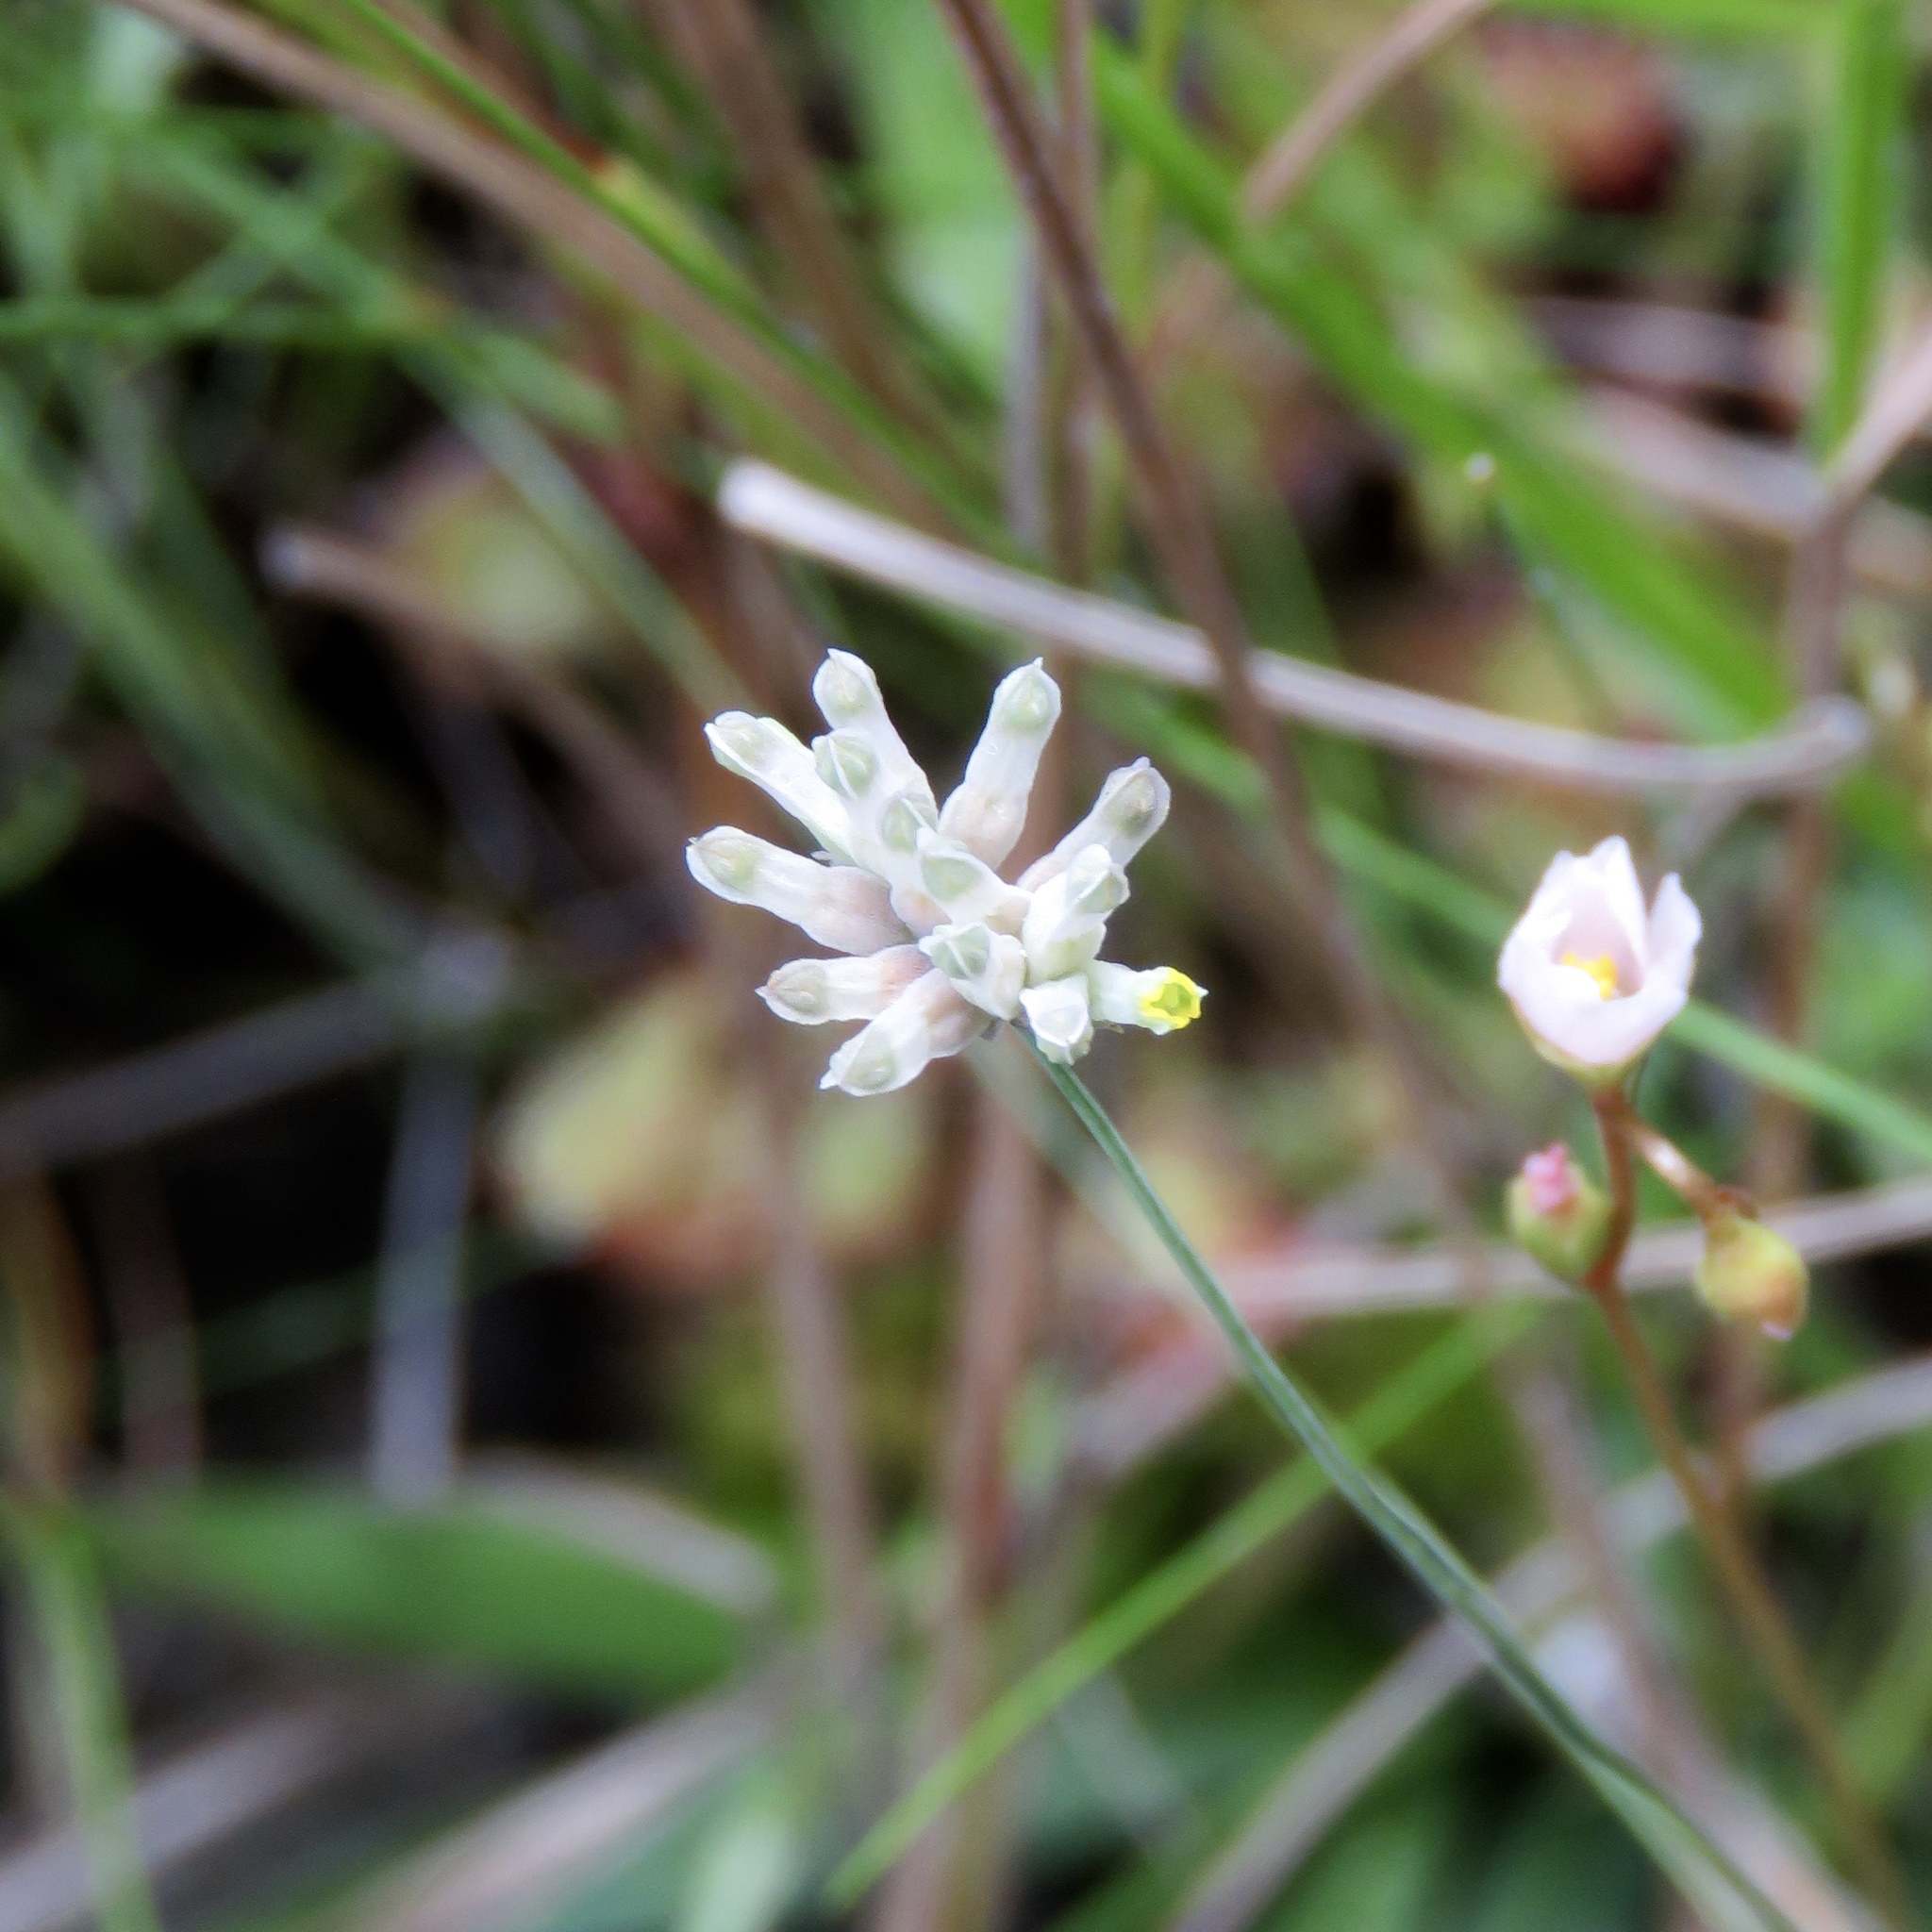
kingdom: Plantae
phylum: Tracheophyta
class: Liliopsida
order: Dioscoreales
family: Burmanniaceae
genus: Burmannia
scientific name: Burmannia capitata
